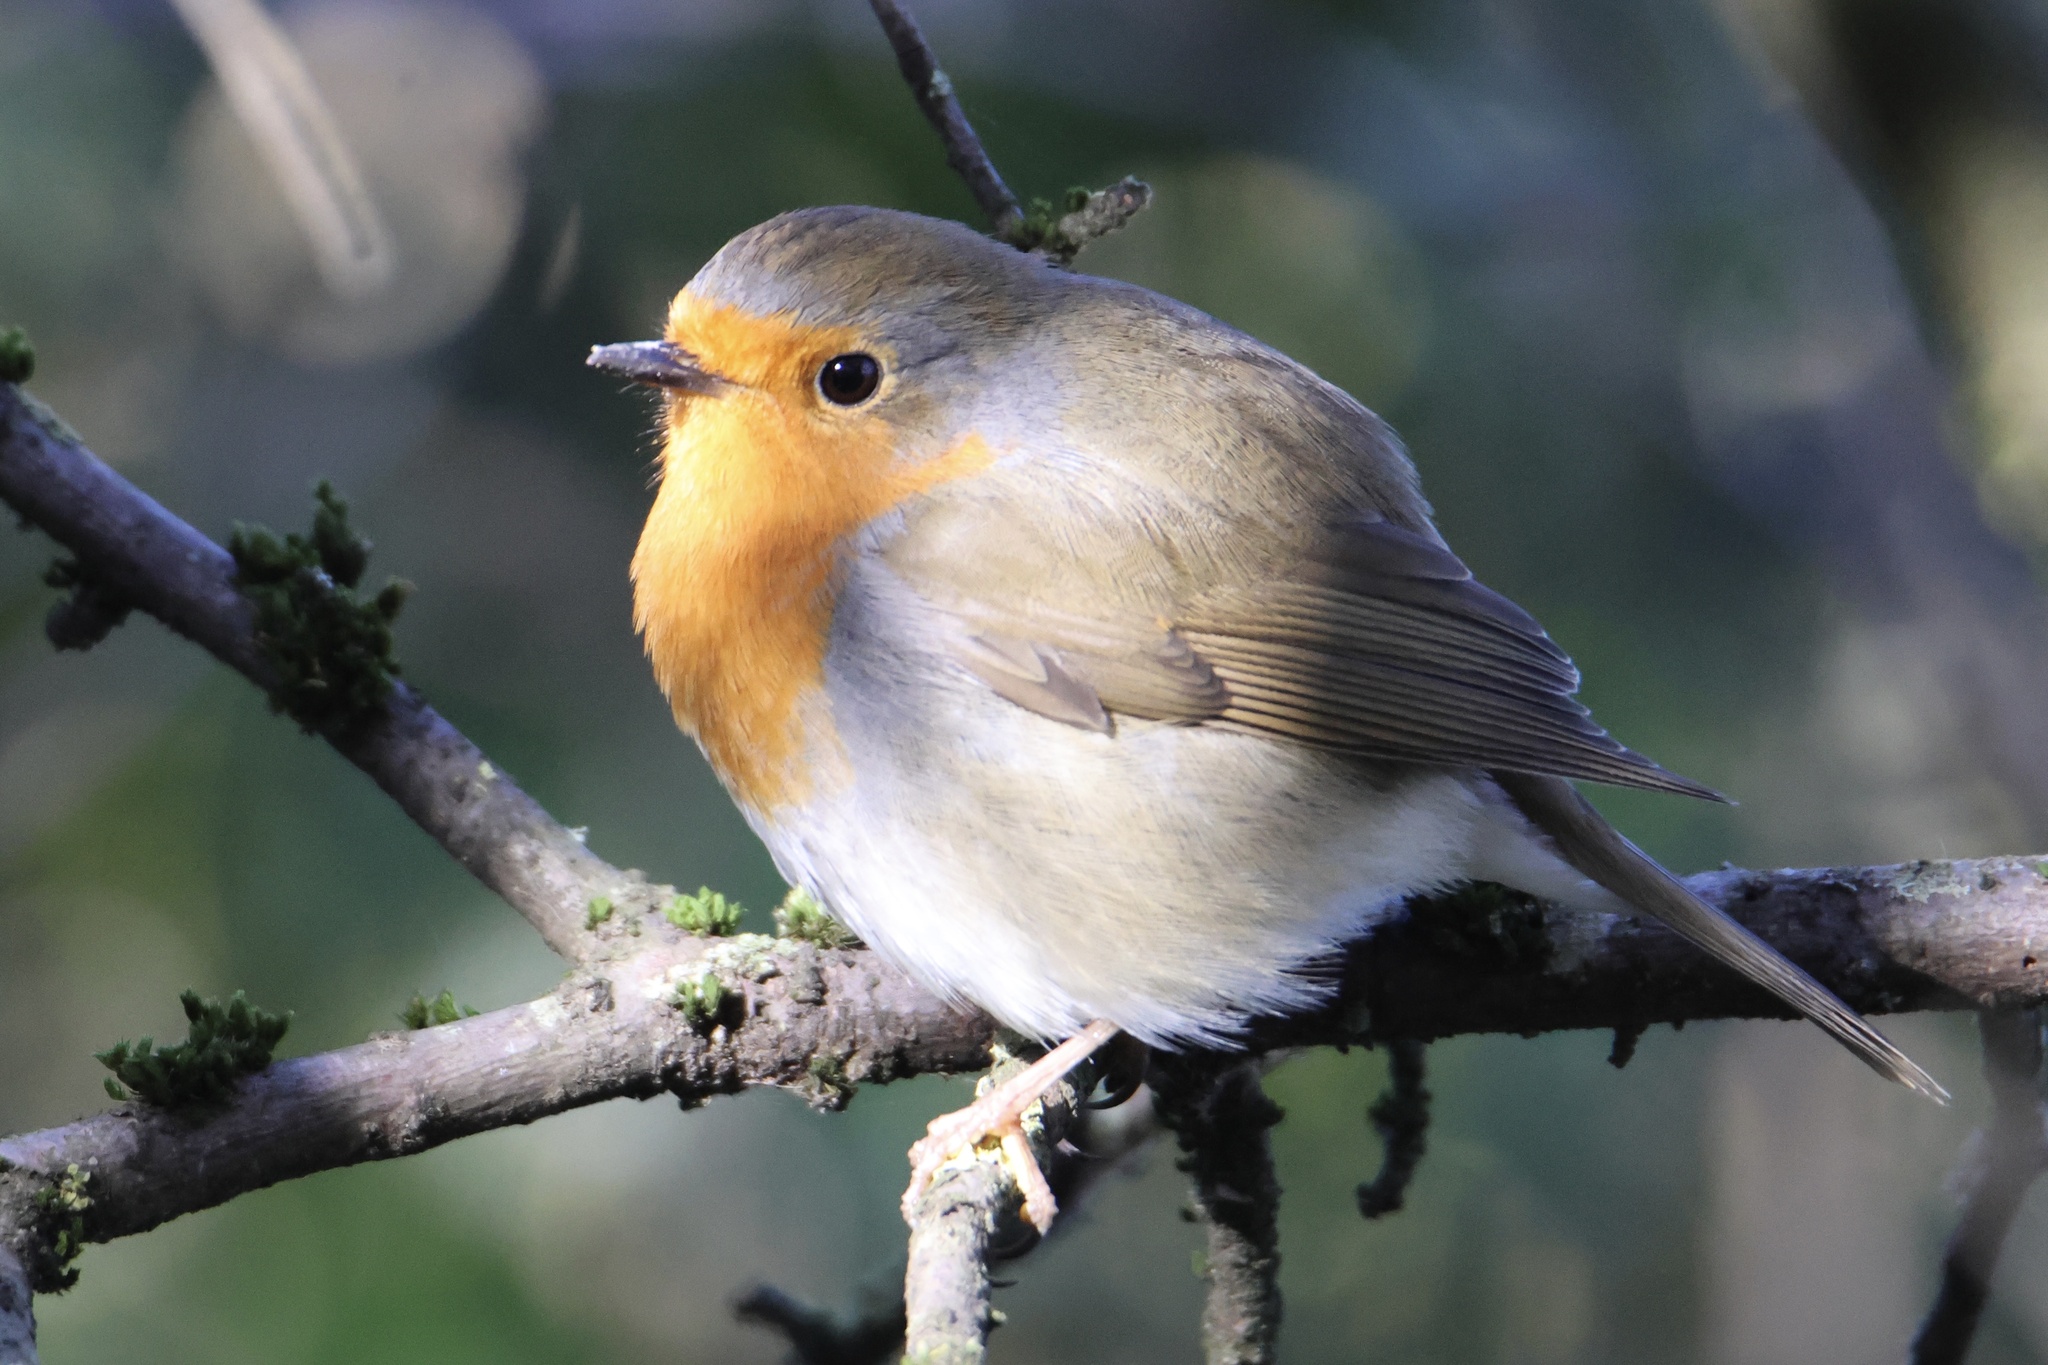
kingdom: Animalia
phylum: Chordata
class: Aves
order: Passeriformes
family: Muscicapidae
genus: Erithacus
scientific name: Erithacus rubecula
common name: European robin
